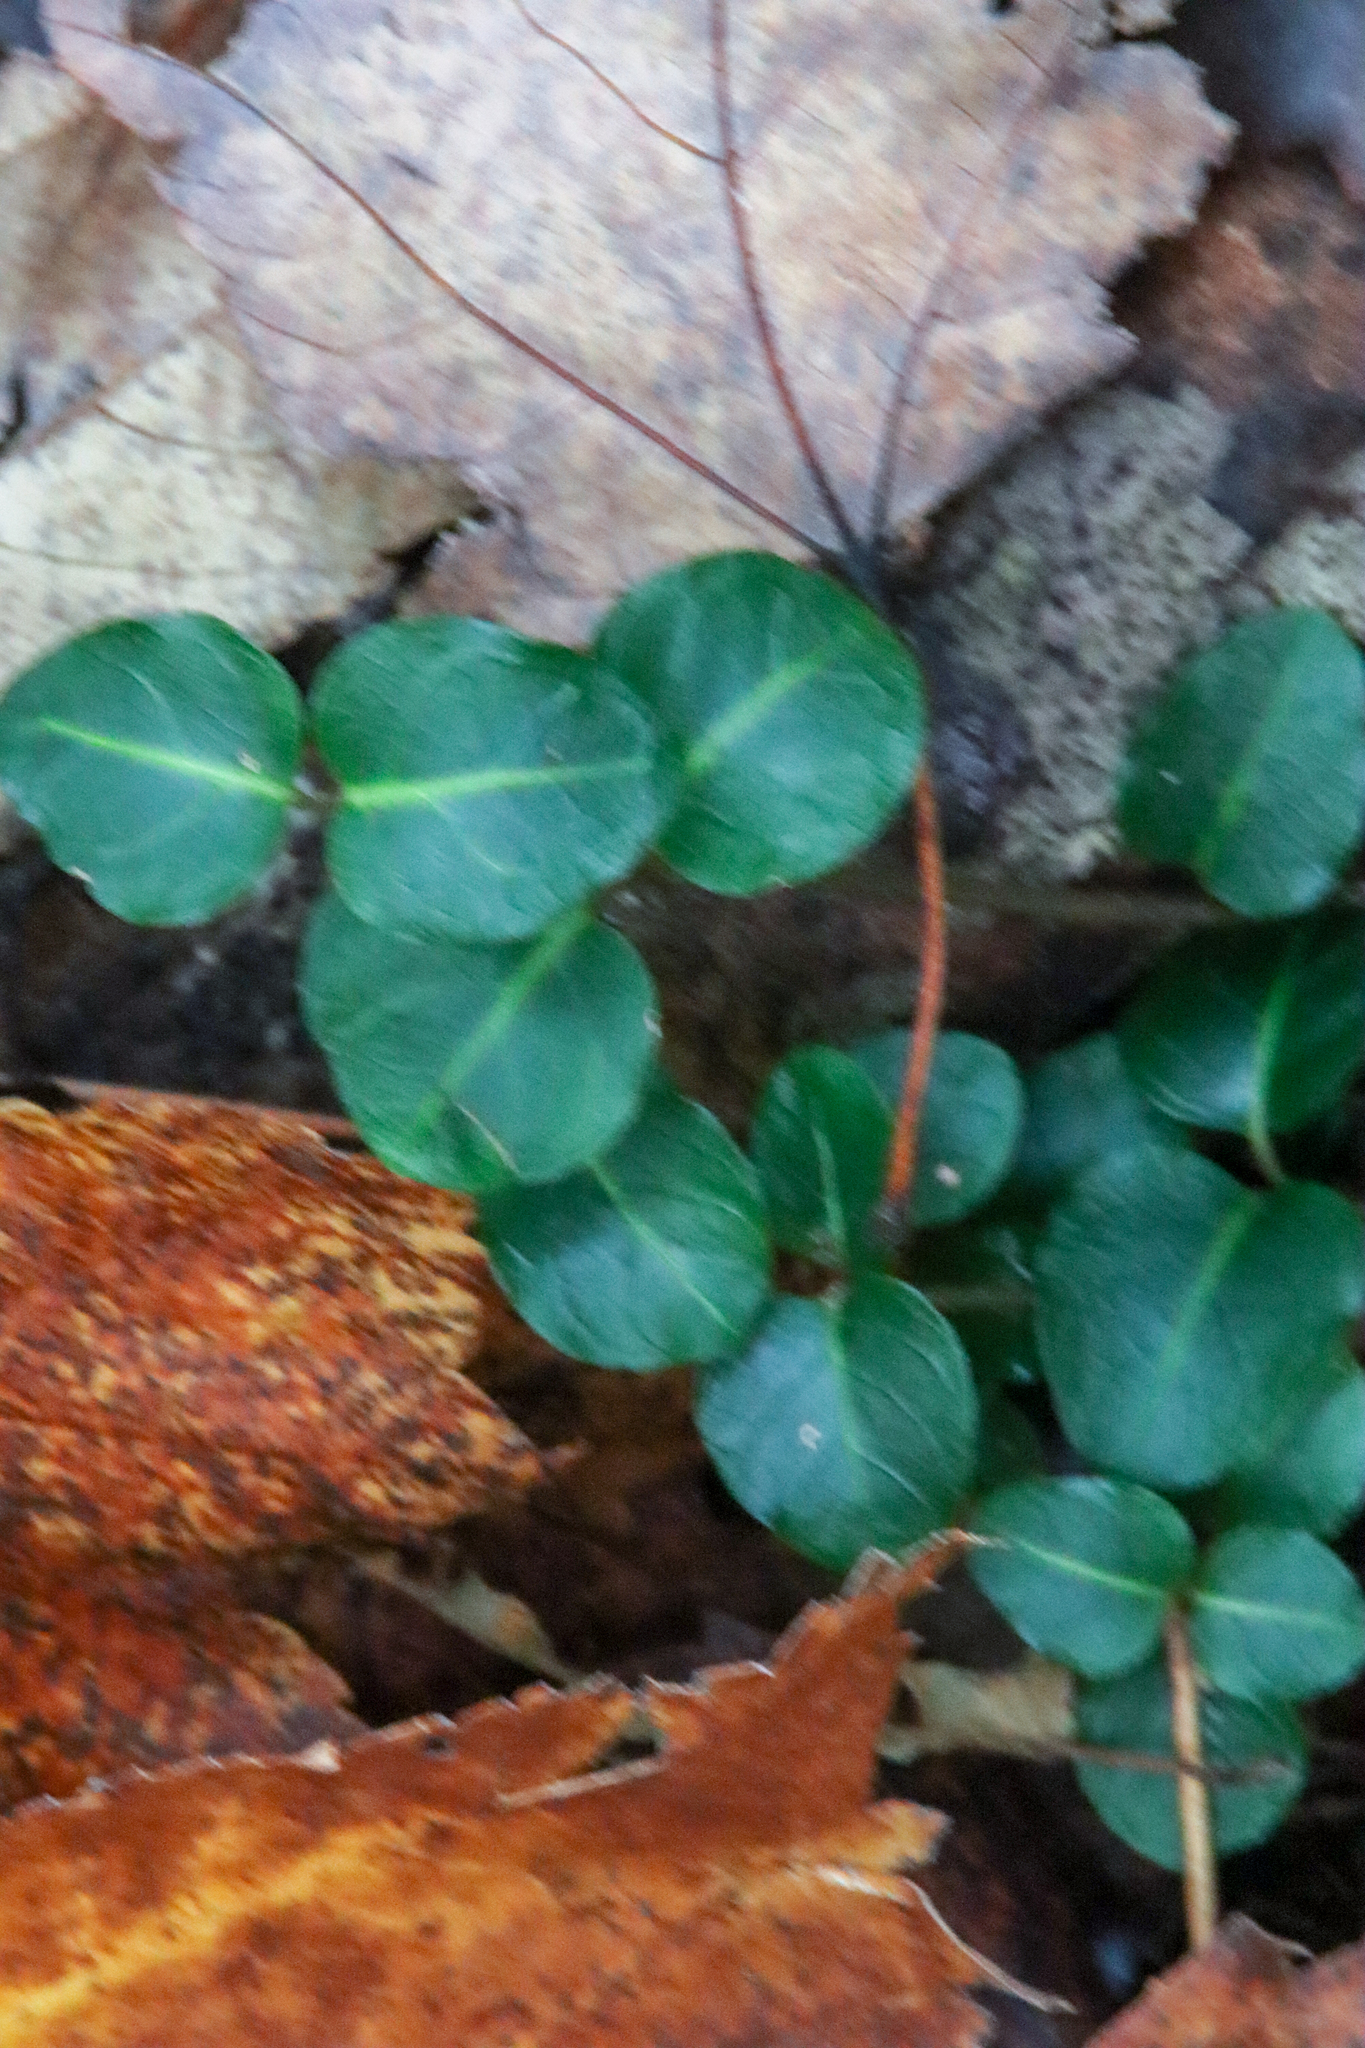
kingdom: Plantae
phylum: Tracheophyta
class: Magnoliopsida
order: Gentianales
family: Rubiaceae
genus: Mitchella
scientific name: Mitchella repens
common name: Partridge-berry
